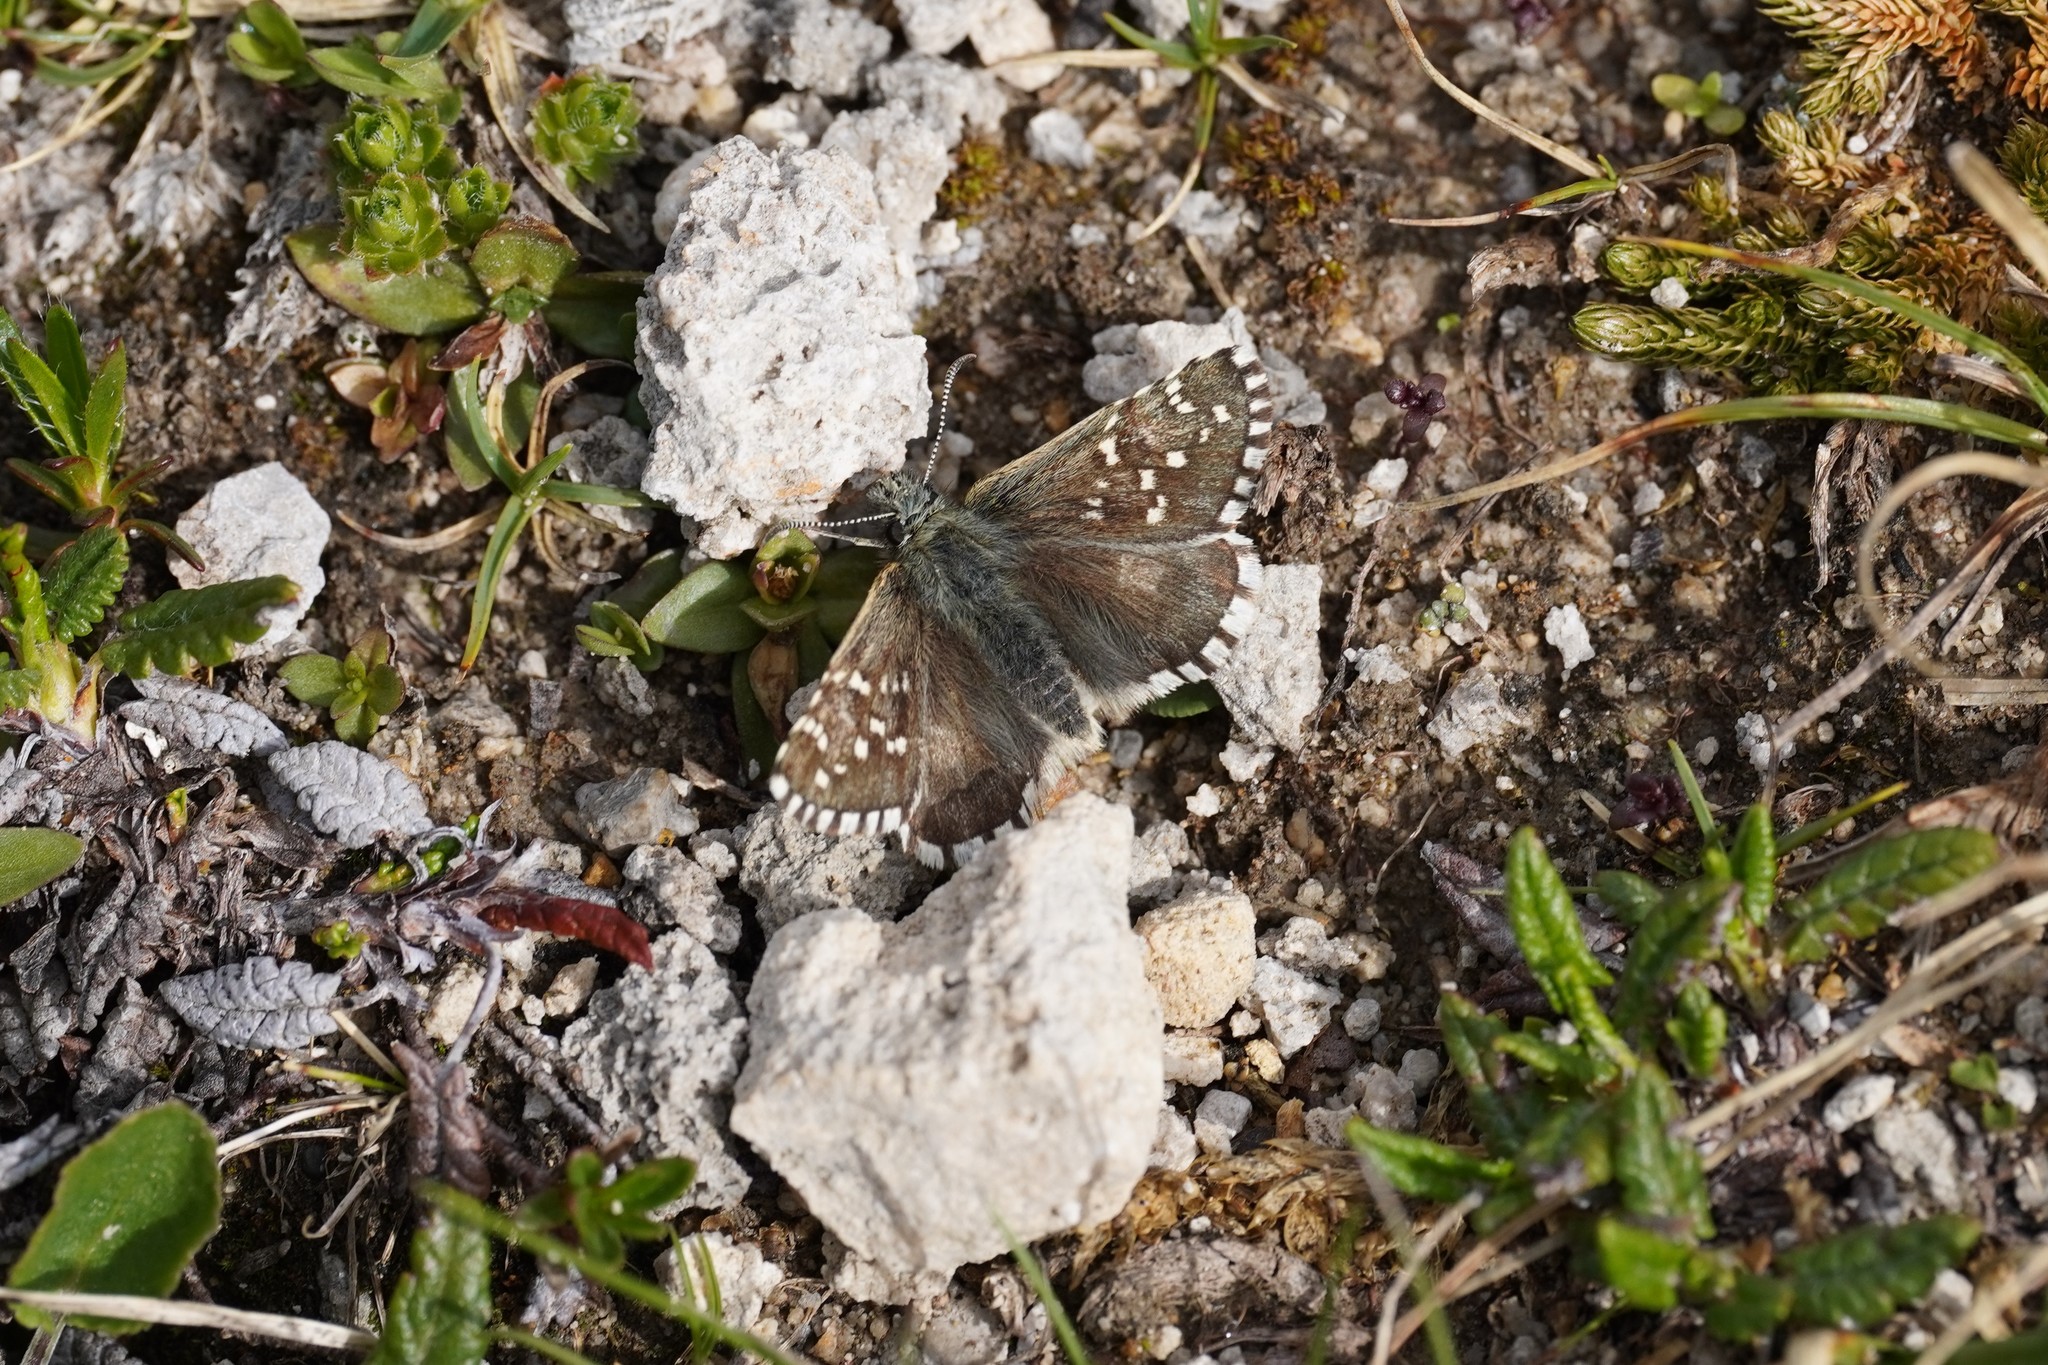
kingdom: Animalia
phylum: Arthropoda
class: Insecta
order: Lepidoptera
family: Hesperiidae
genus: Pyrgus
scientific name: Pyrgus andromedae
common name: Alpine grizzled skipper
